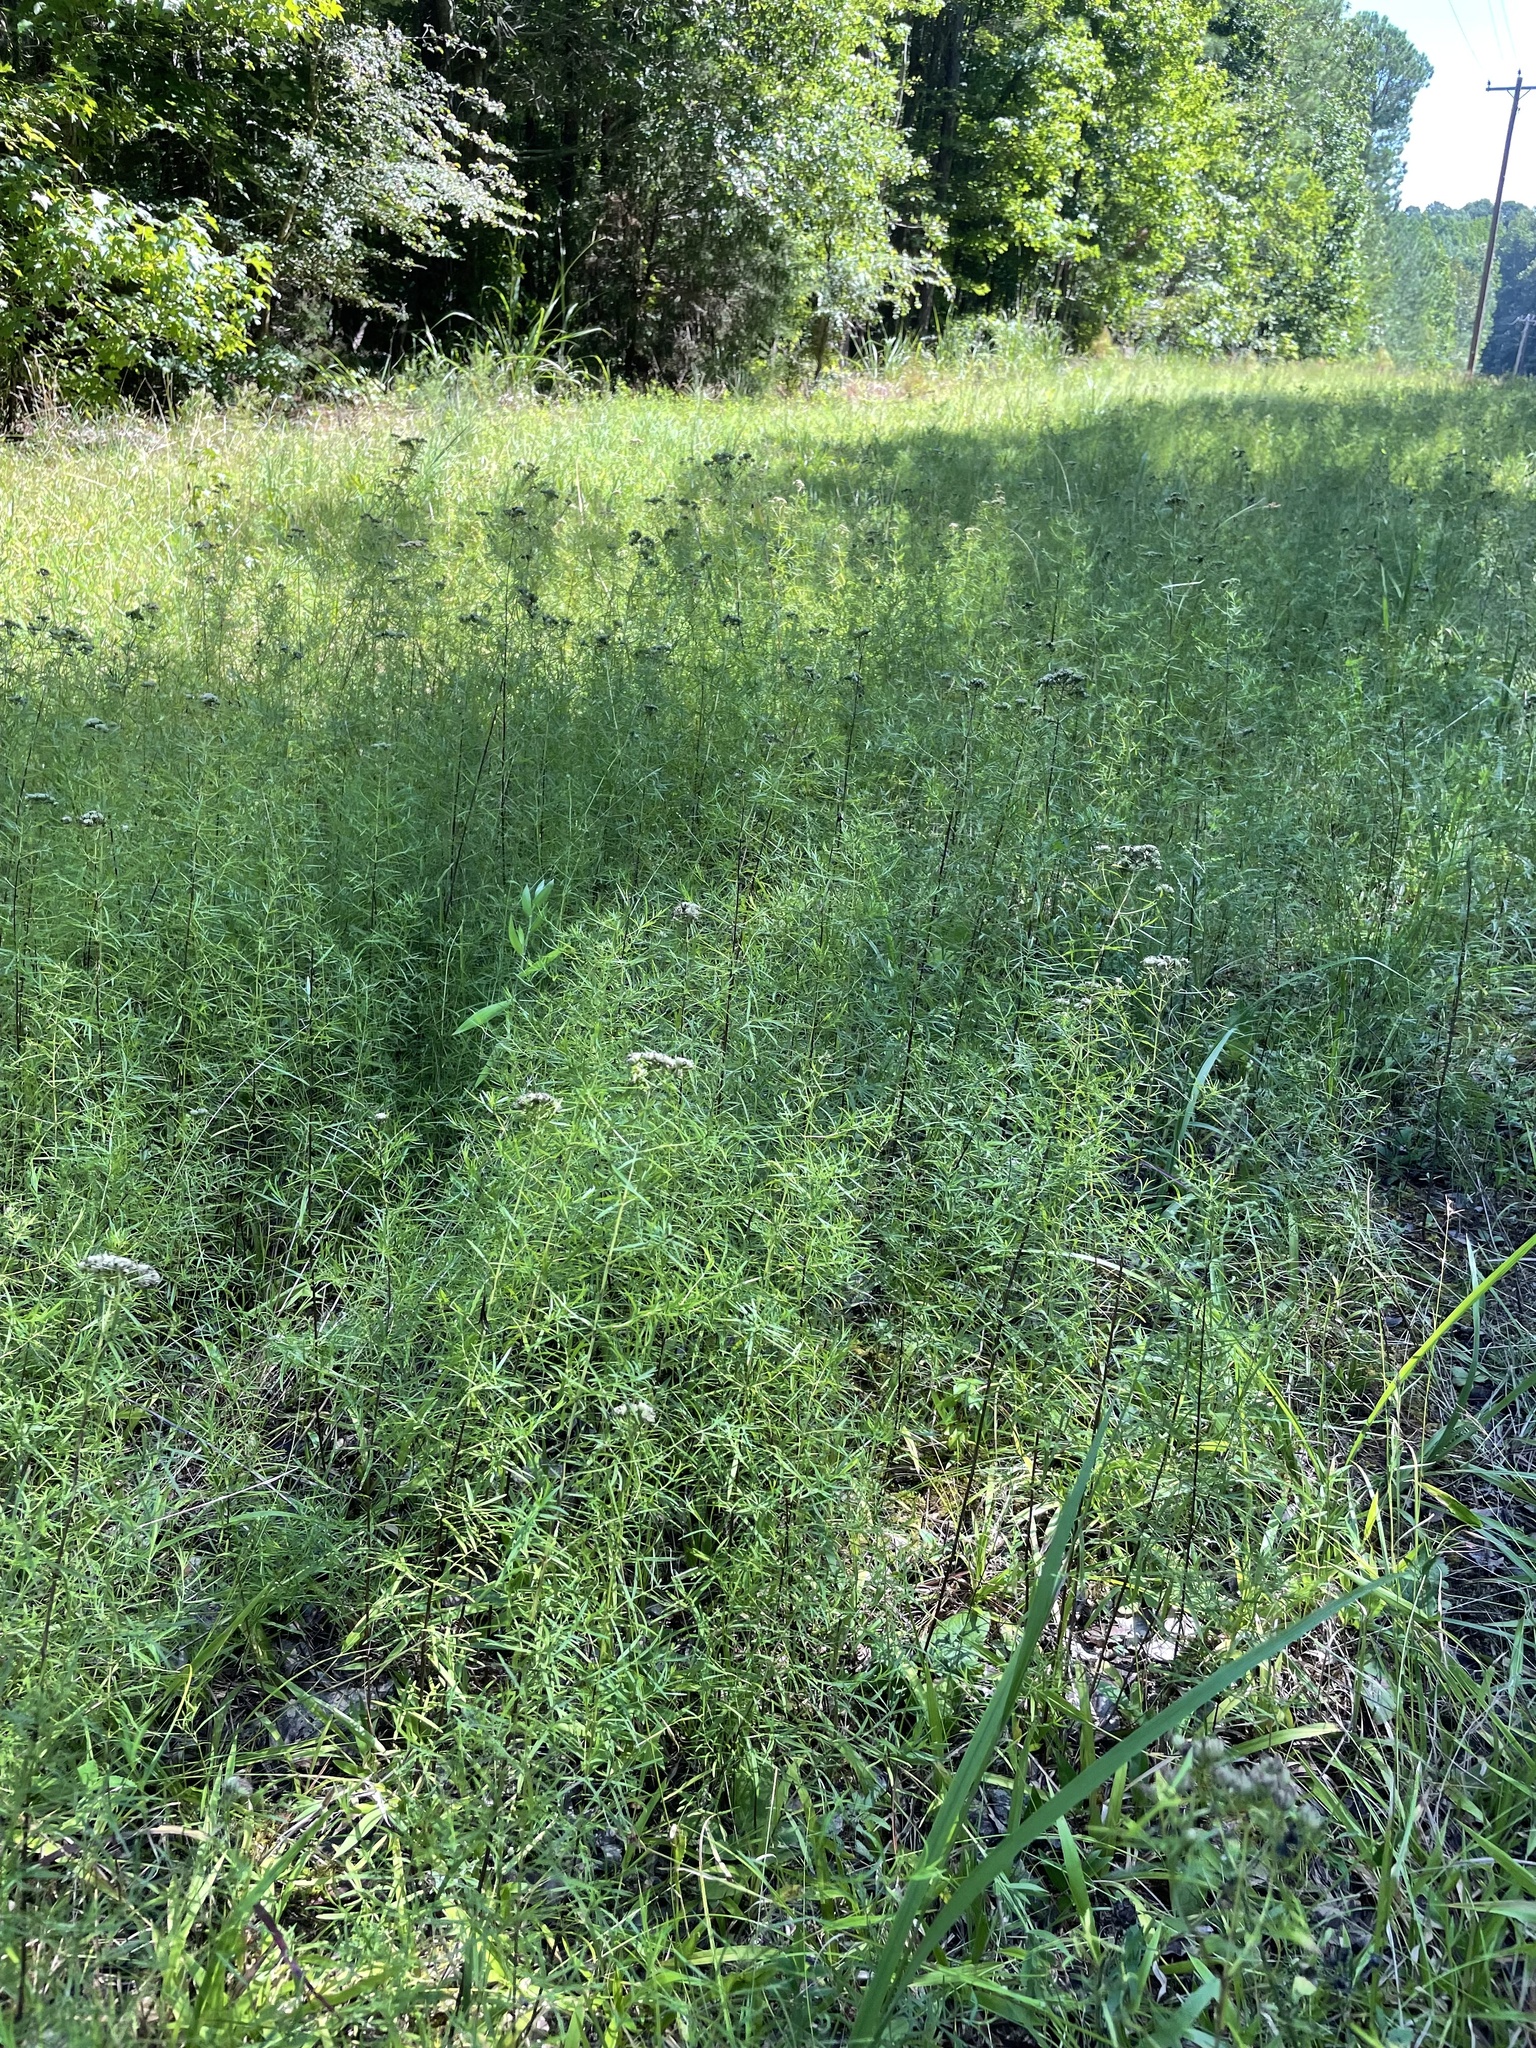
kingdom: Plantae
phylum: Tracheophyta
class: Magnoliopsida
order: Lamiales
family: Lamiaceae
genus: Pycnanthemum
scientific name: Pycnanthemum tenuifolium
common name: Narrow-leaf mountain-mint
